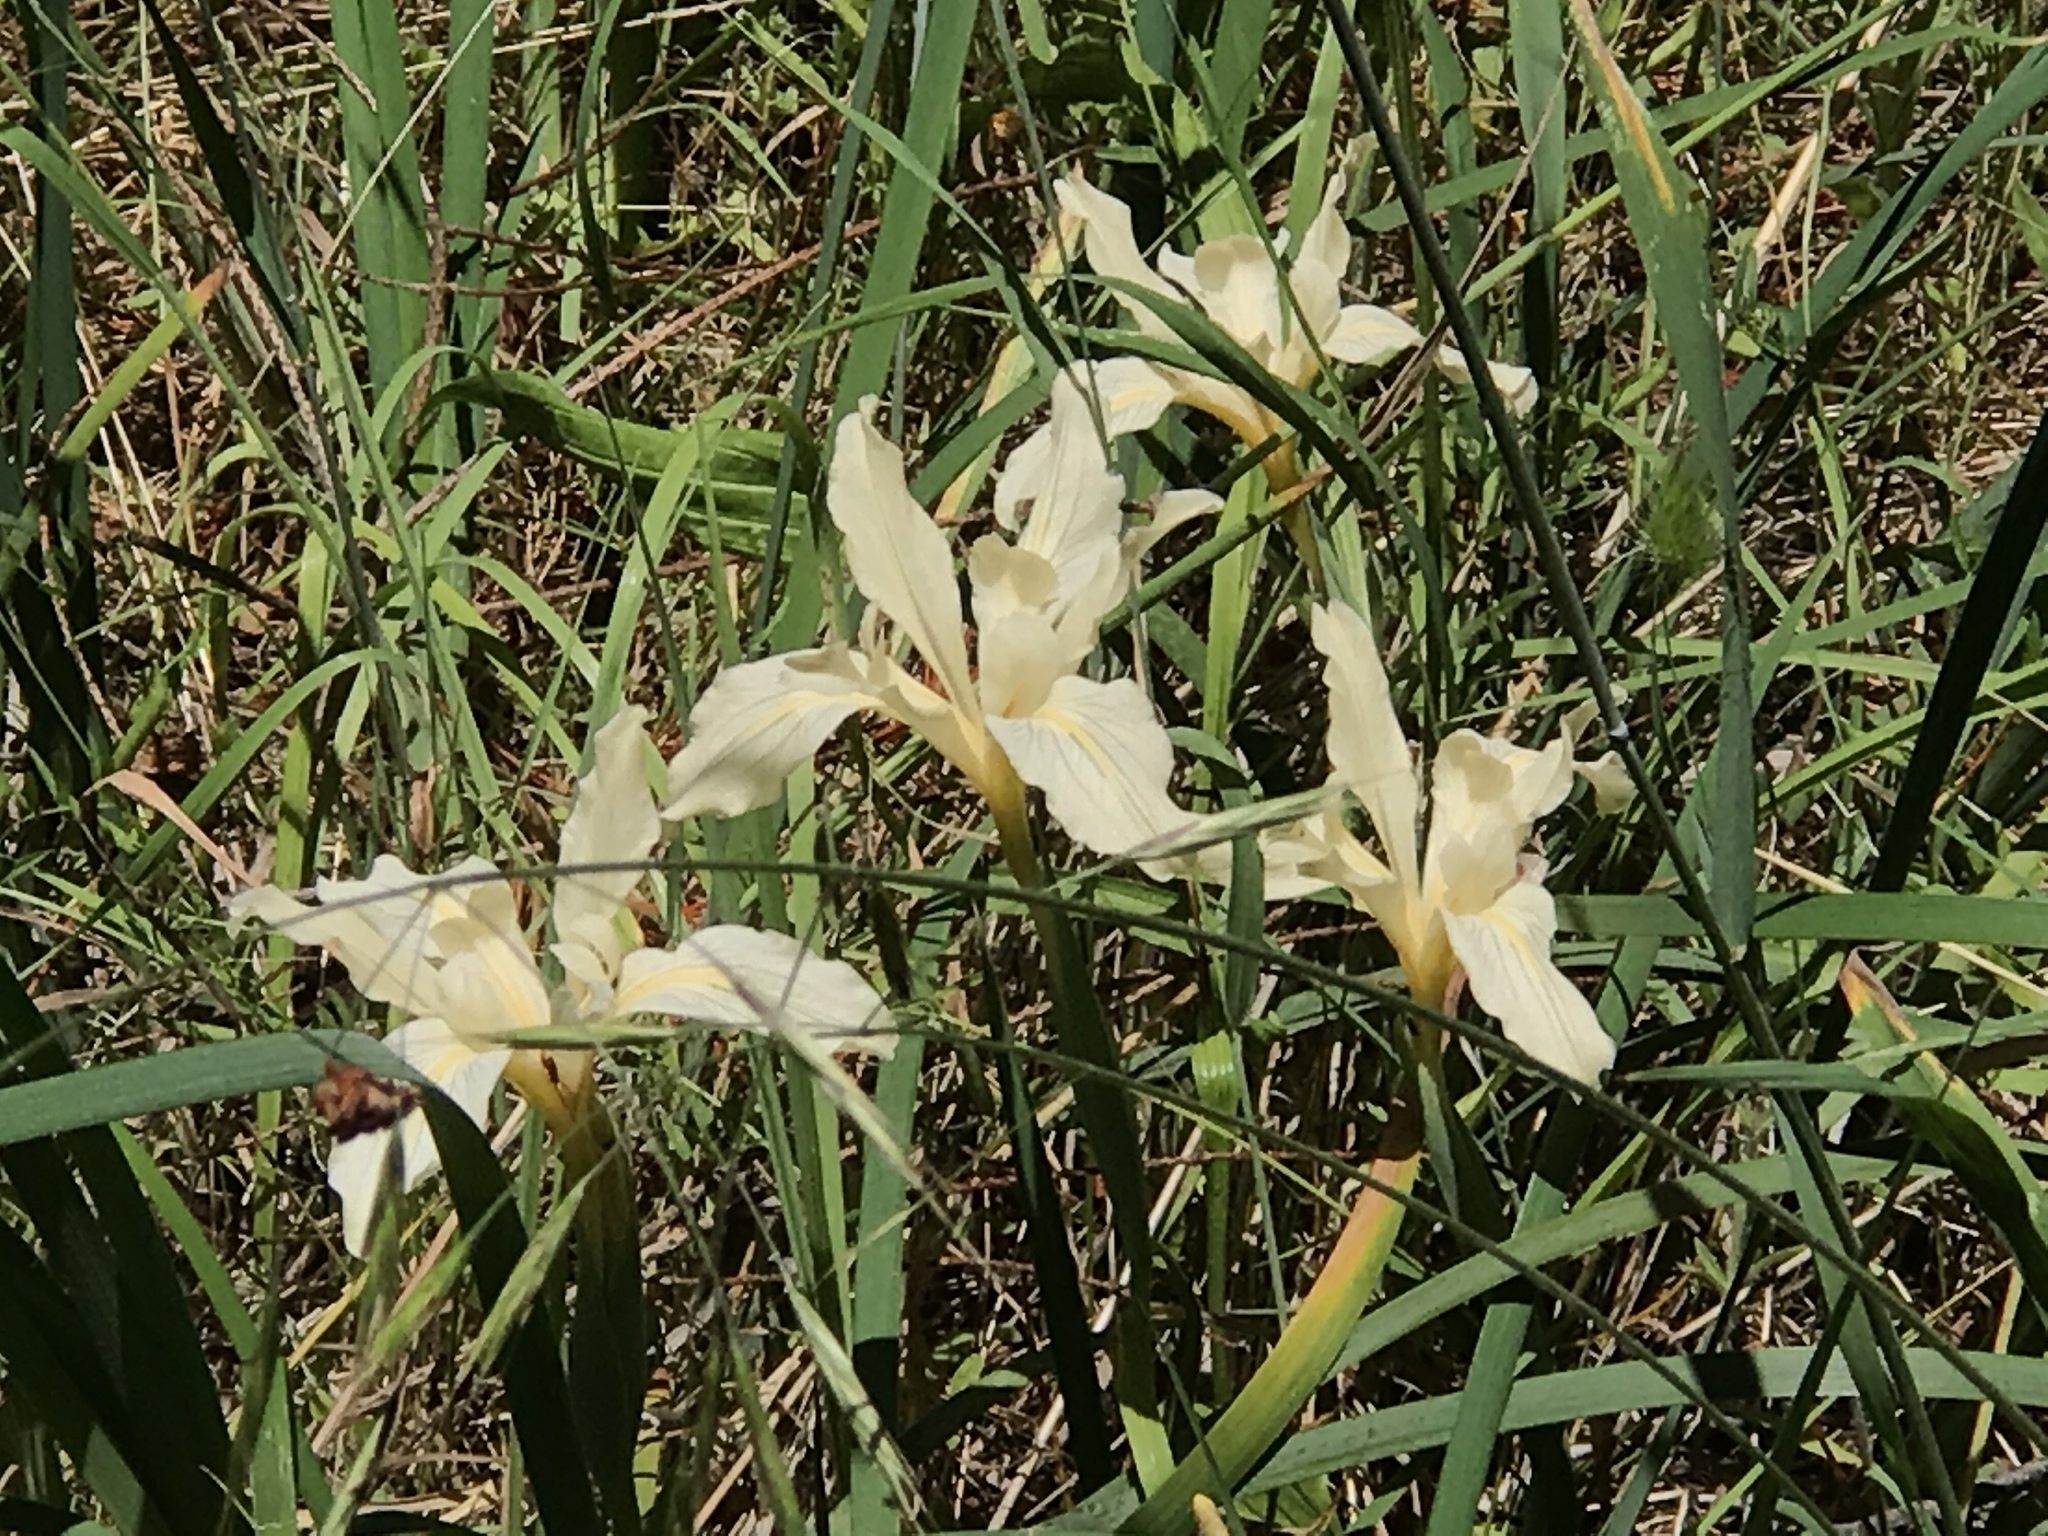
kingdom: Plantae
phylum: Tracheophyta
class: Liliopsida
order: Asparagales
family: Iridaceae
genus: Iris
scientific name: Iris fernaldii
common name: Fernald's iris
